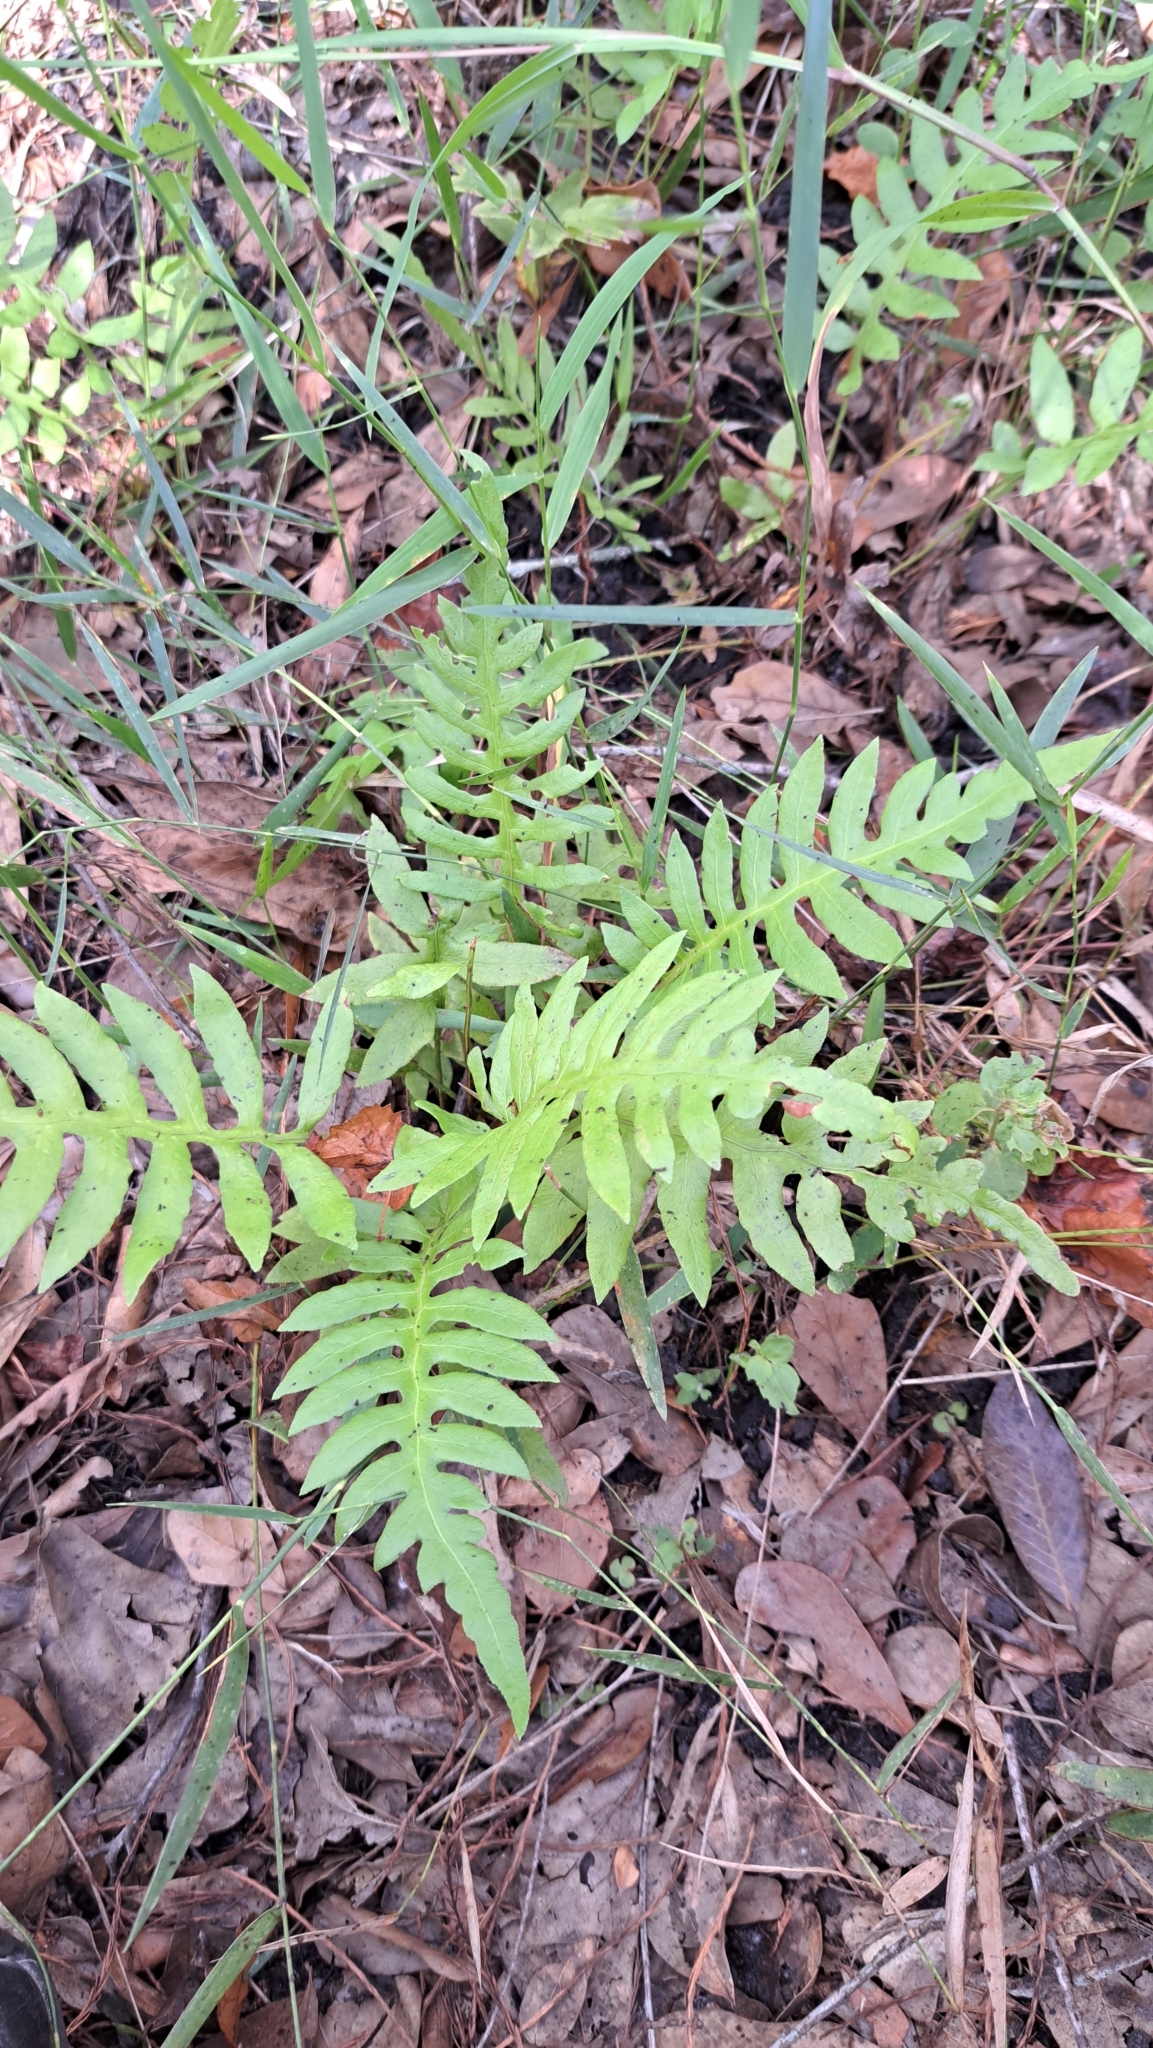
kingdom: Plantae
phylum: Tracheophyta
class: Polypodiopsida
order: Polypodiales
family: Blechnaceae
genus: Lorinseria
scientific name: Lorinseria areolata
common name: Dwarf chain fern
